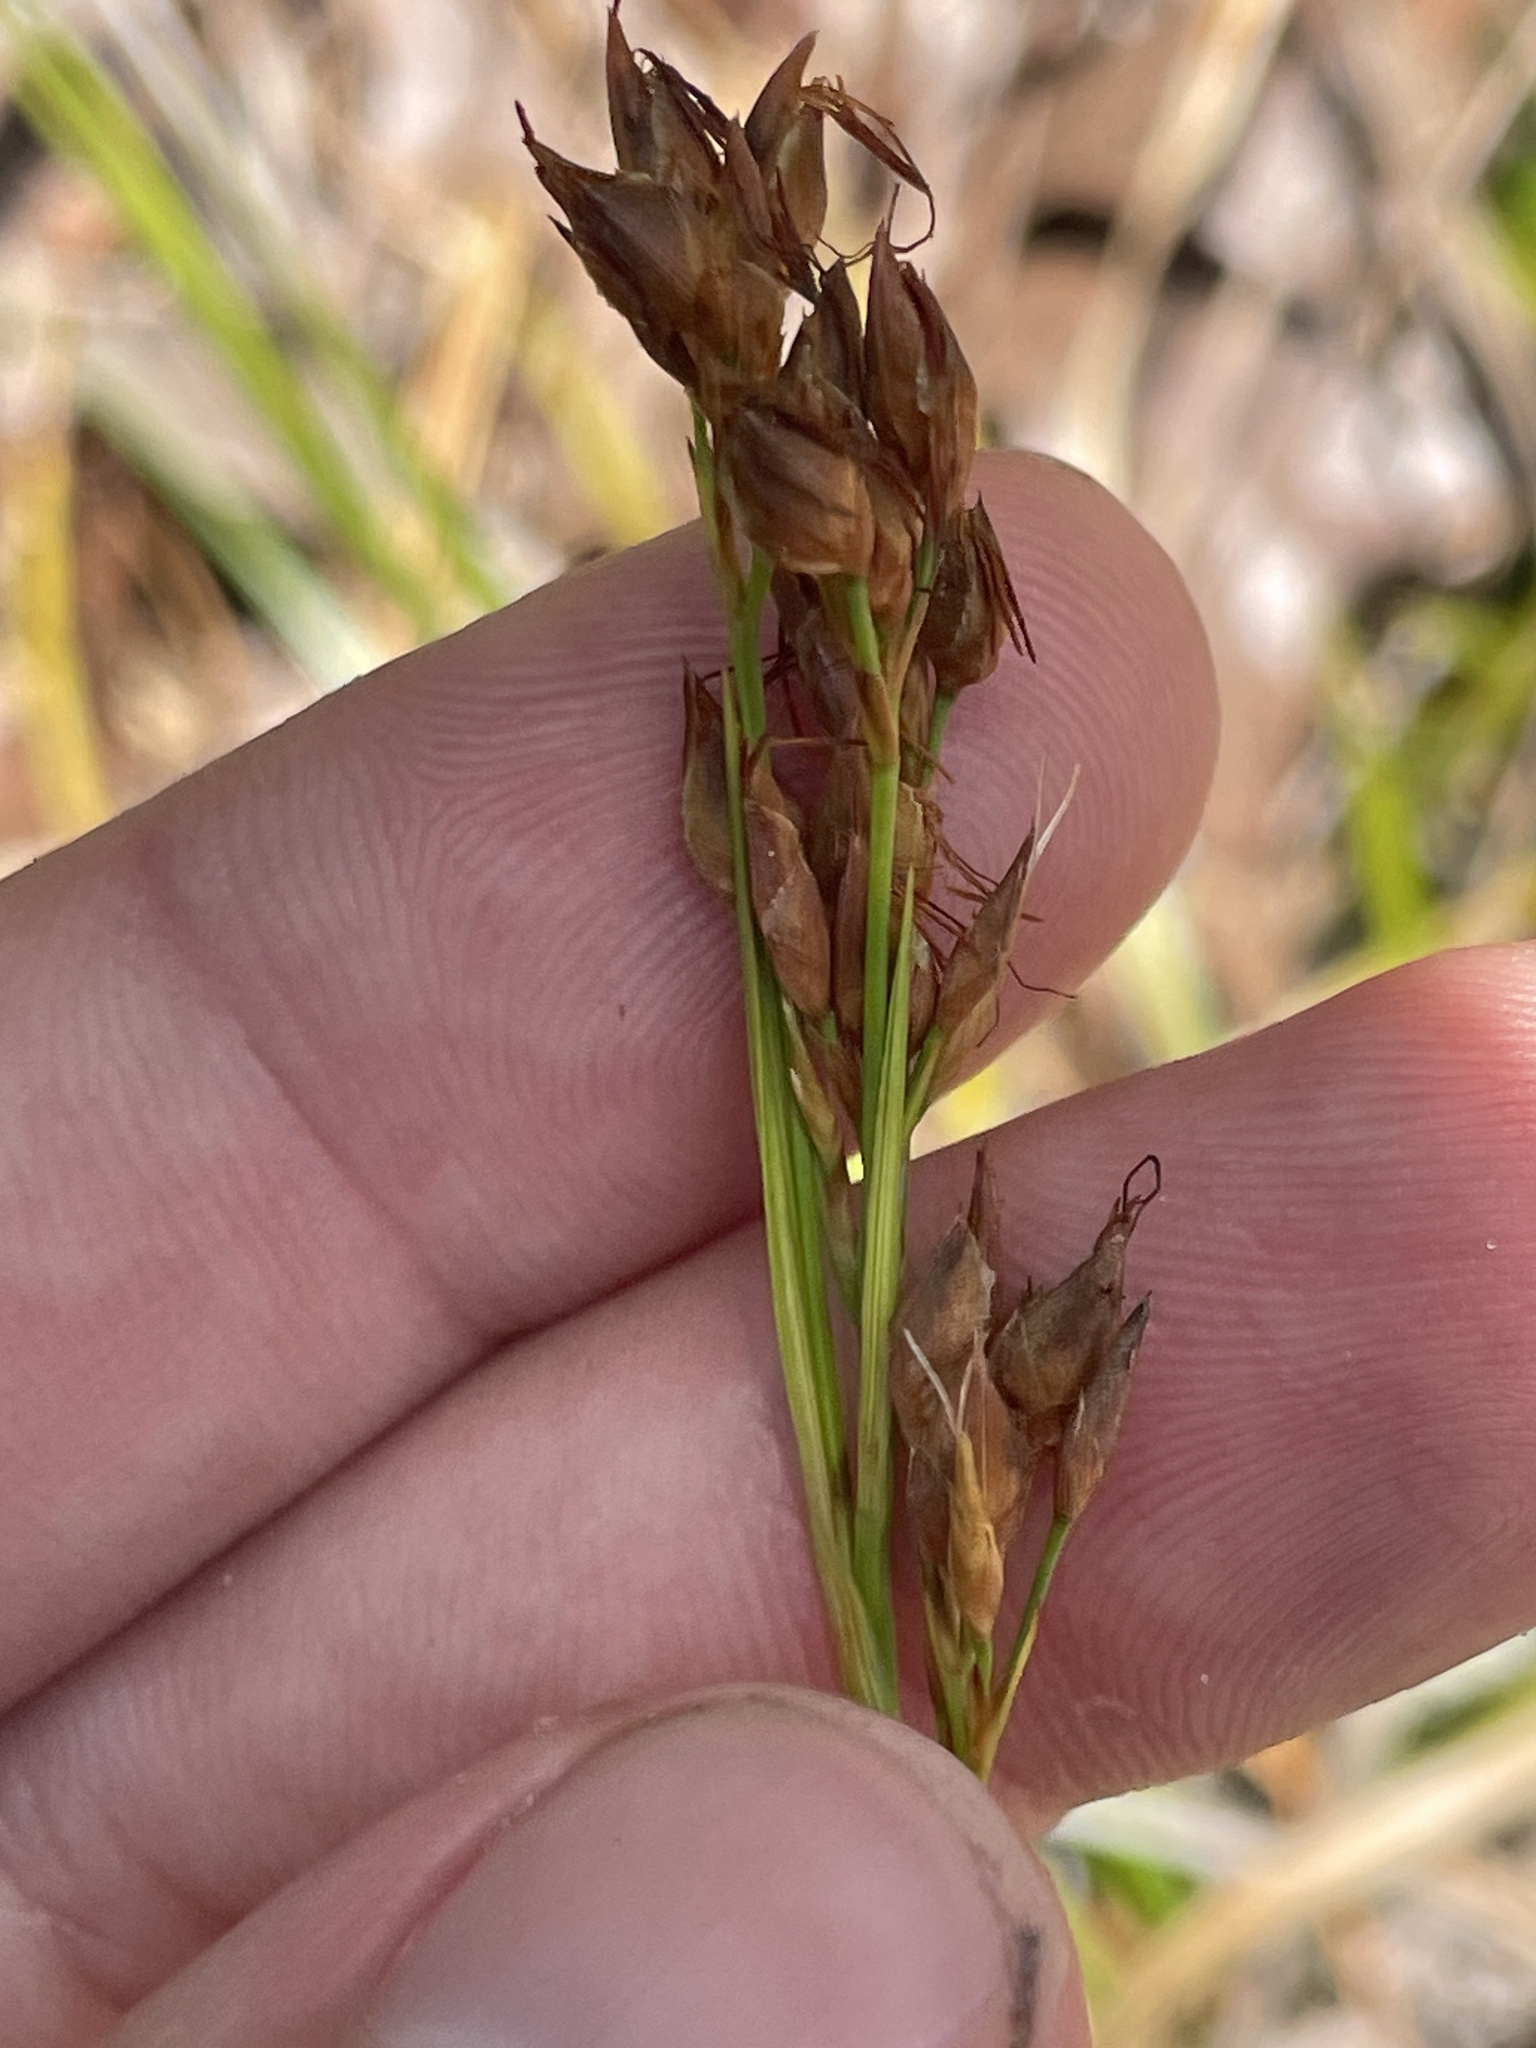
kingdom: Plantae
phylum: Tracheophyta
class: Liliopsida
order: Poales
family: Cyperaceae
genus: Rhynchospora
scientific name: Rhynchospora megalocarpa
